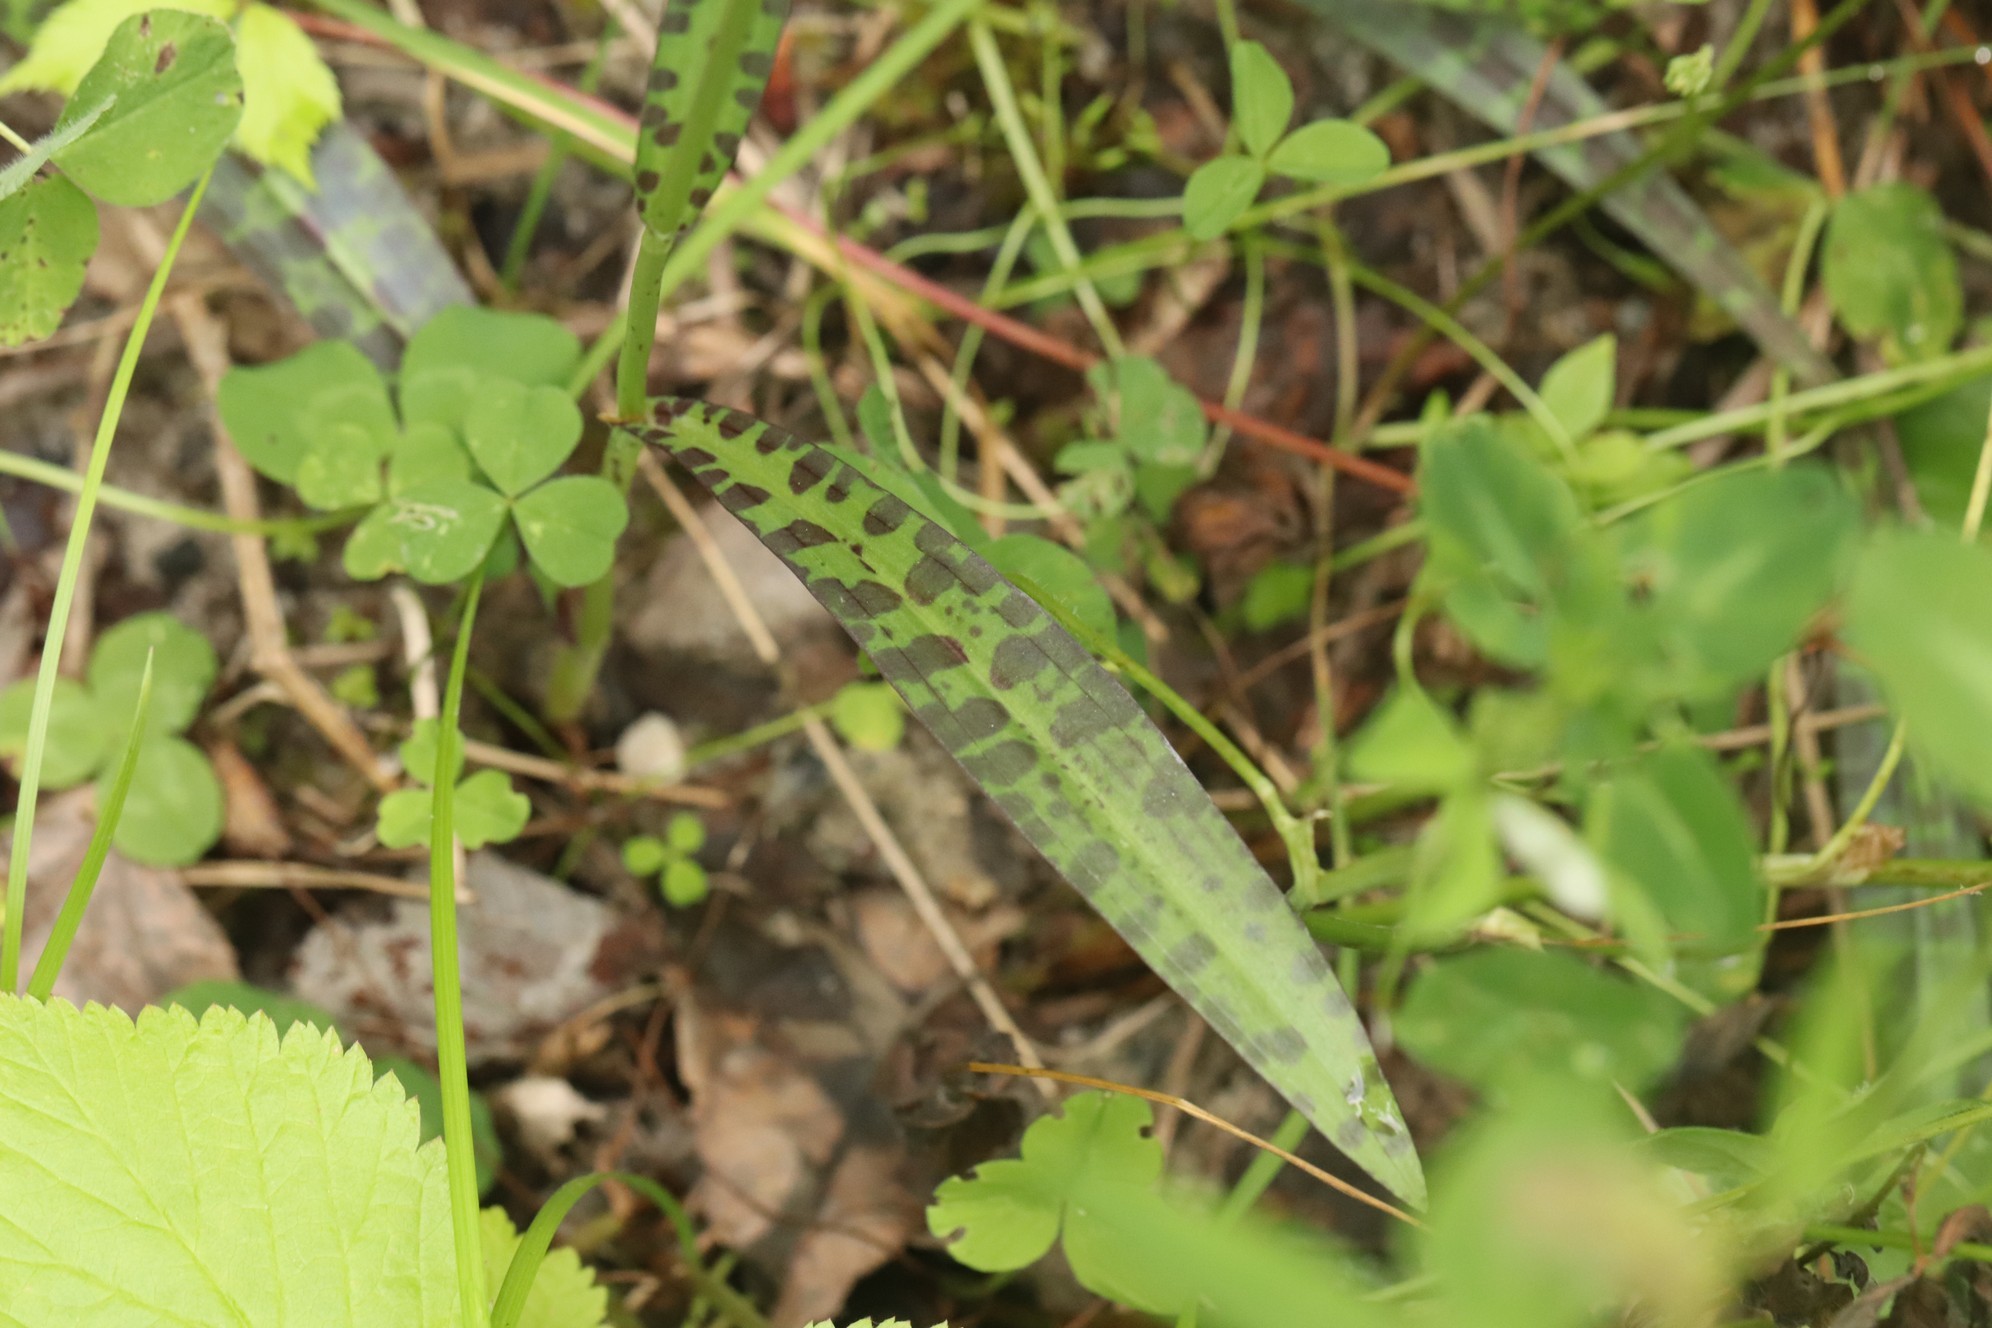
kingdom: Plantae
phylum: Tracheophyta
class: Liliopsida
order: Asparagales
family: Orchidaceae
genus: Dactylorhiza
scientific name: Dactylorhiza maculata
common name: Heath spotted-orchid
